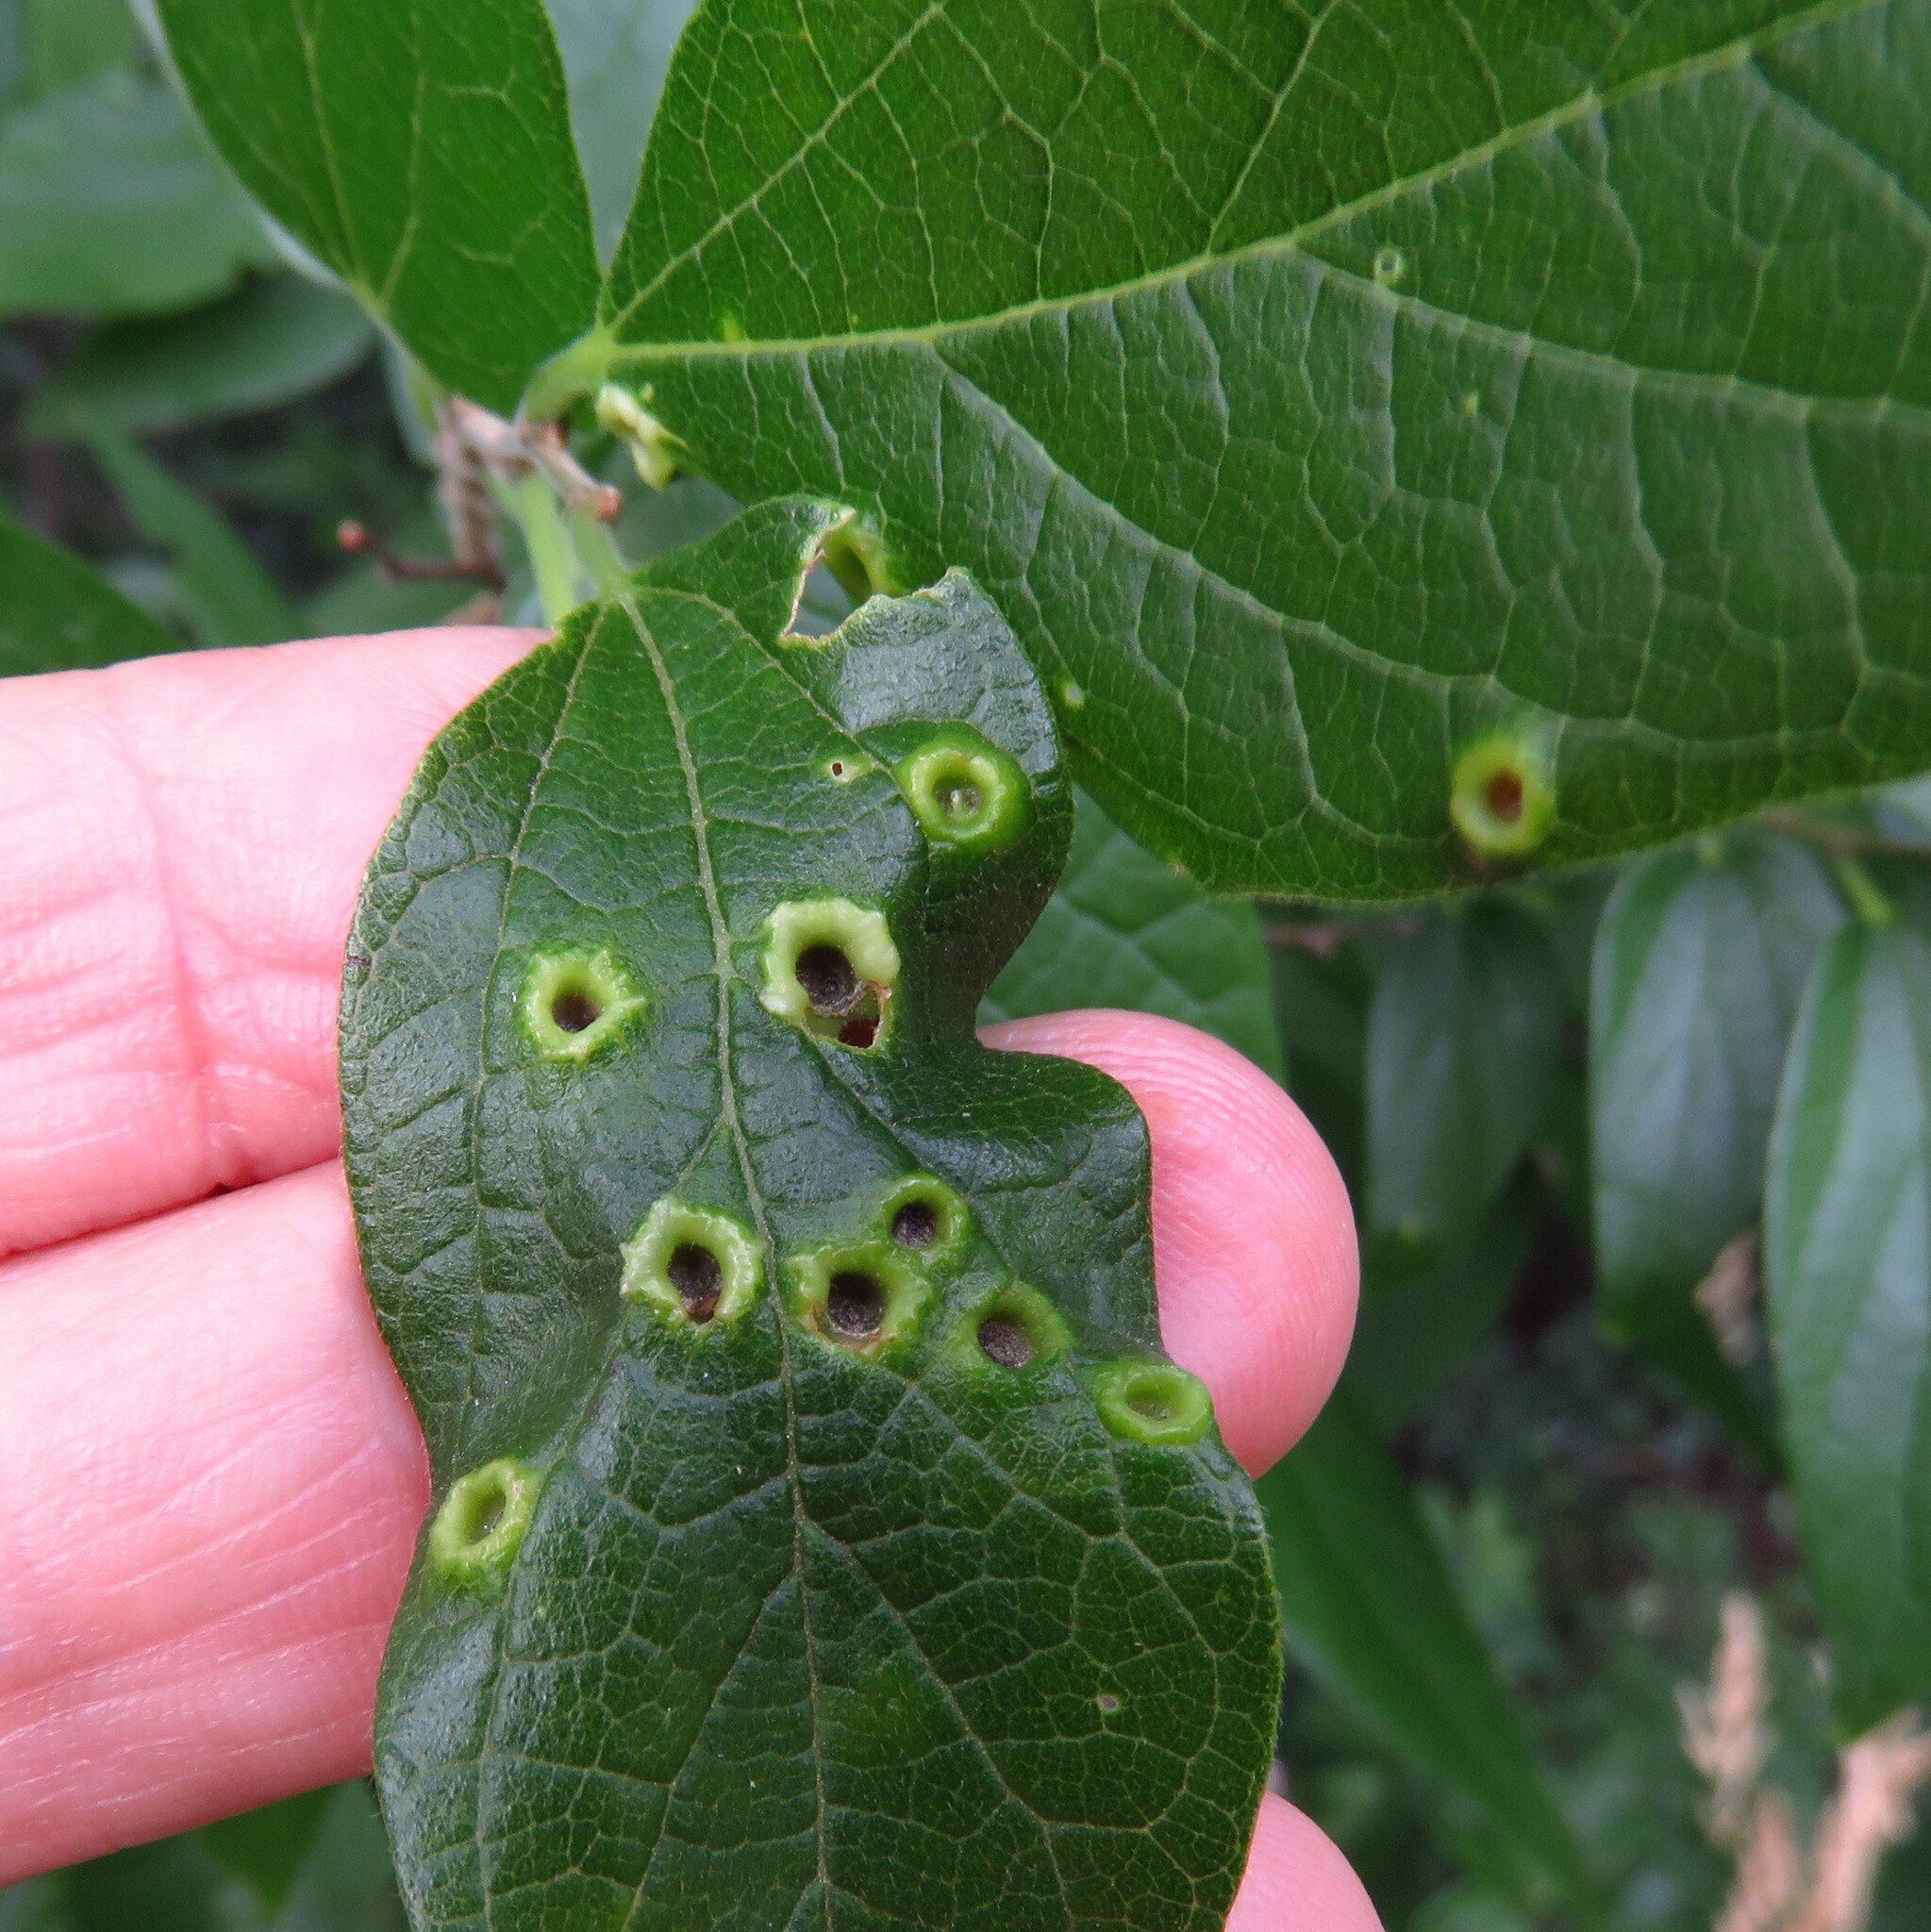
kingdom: Animalia
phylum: Arthropoda
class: Insecta
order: Hemiptera
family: Aphalaridae
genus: Pachypsylla
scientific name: Pachypsylla celtidismamma
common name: Hackberry nipplegall psyllid
